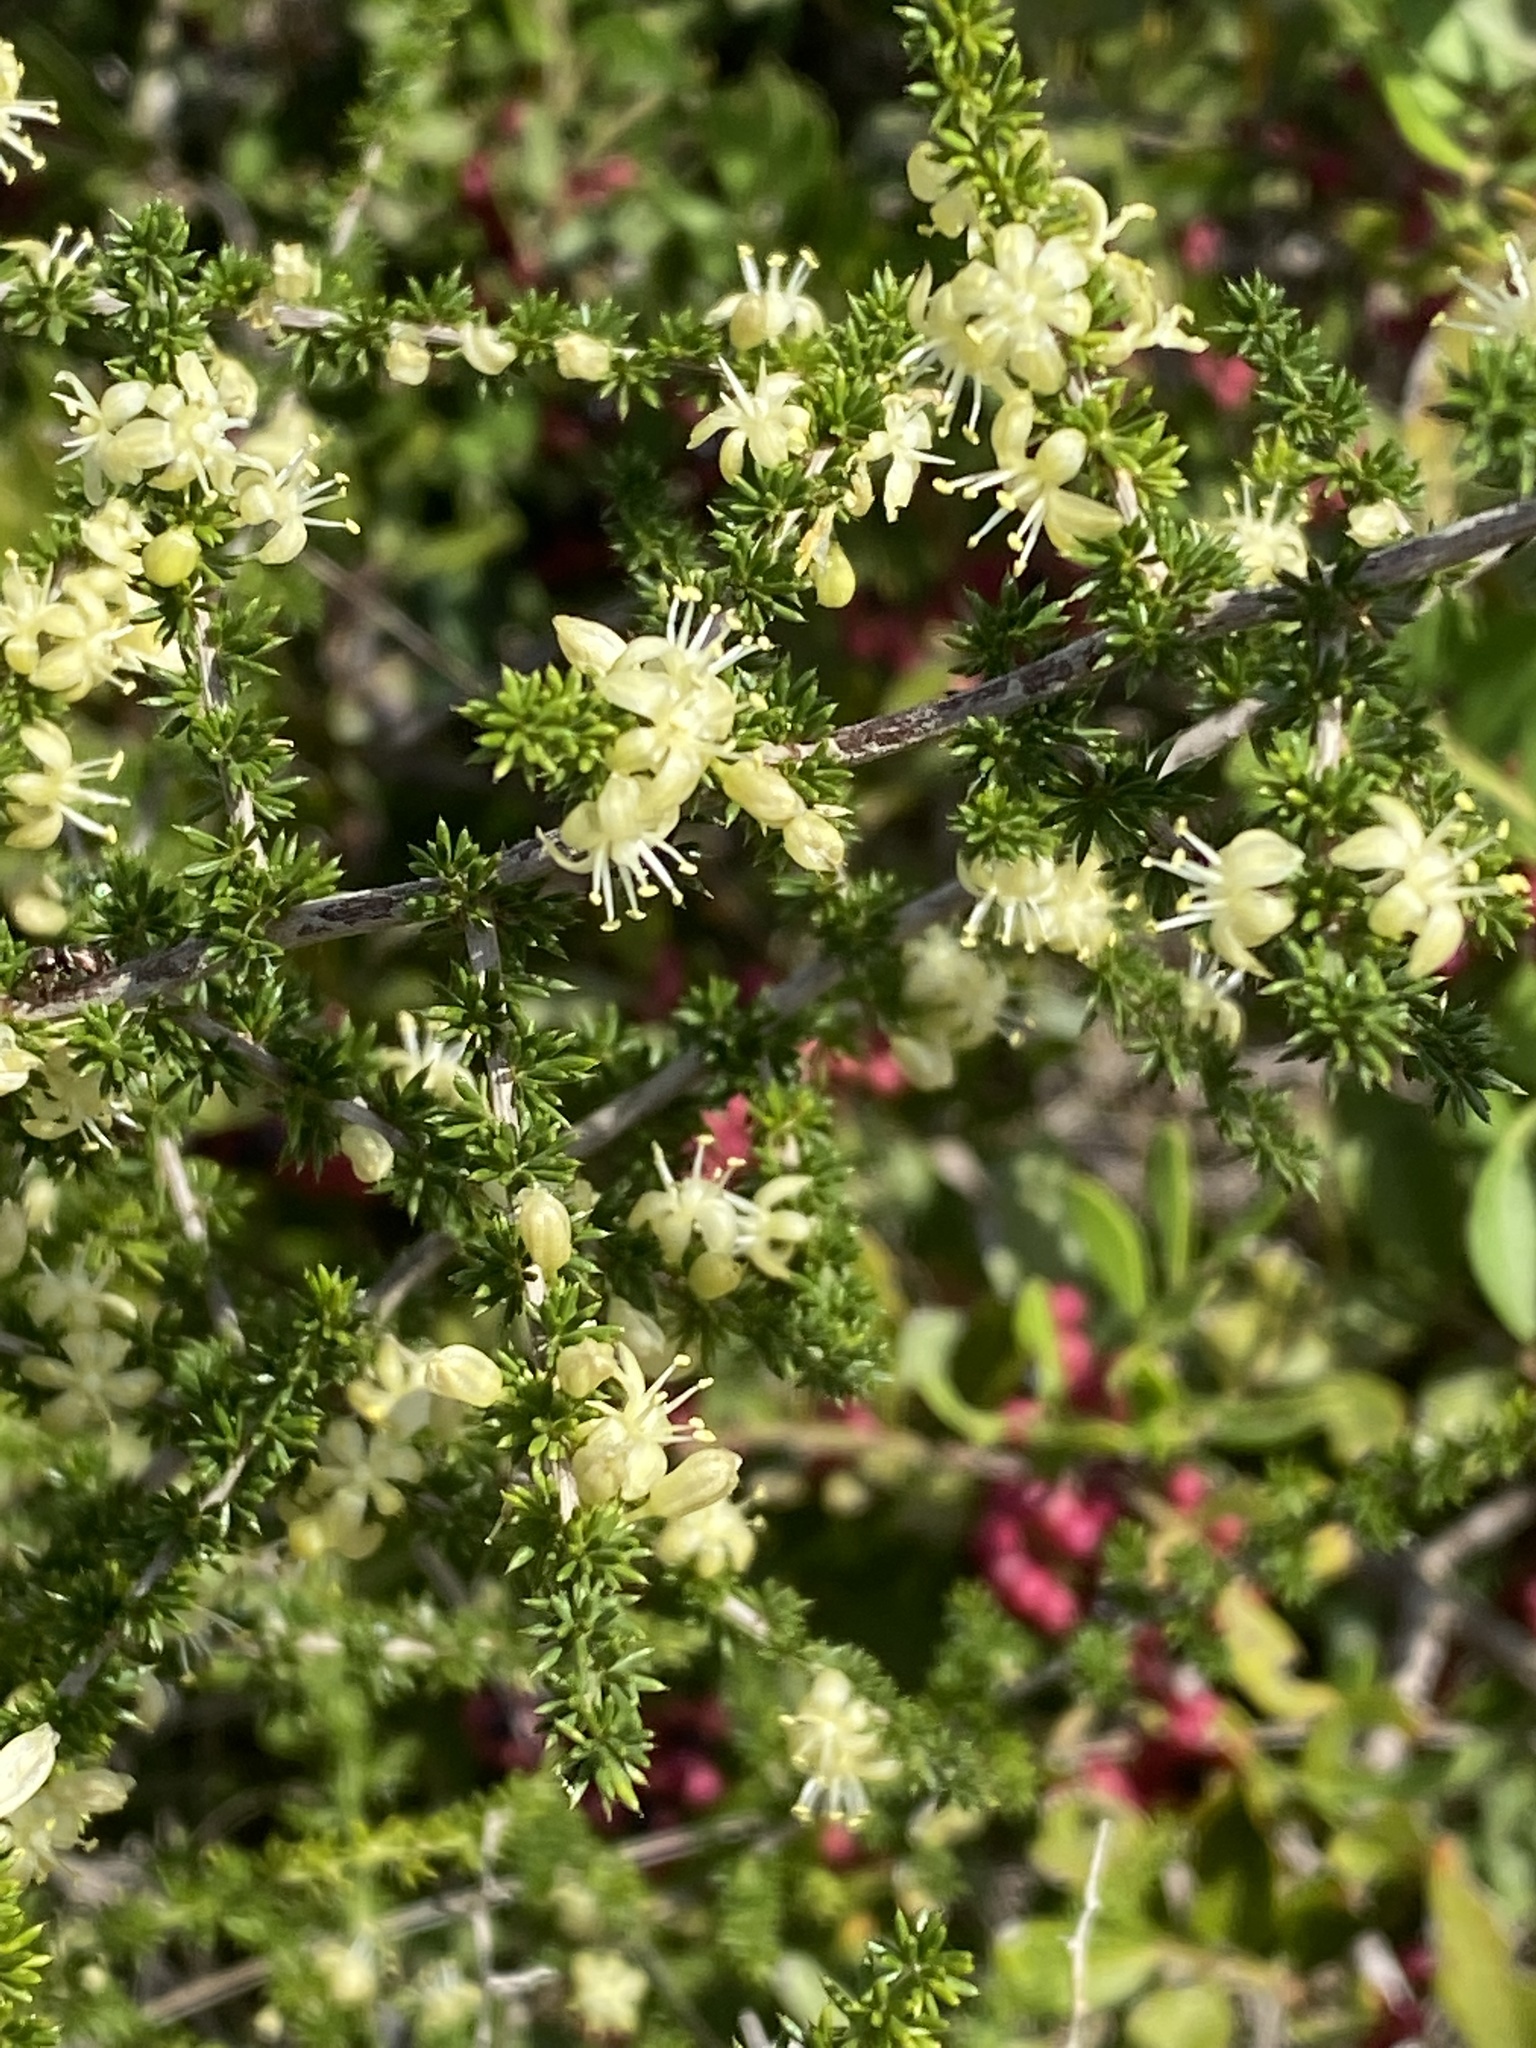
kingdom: Plantae
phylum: Tracheophyta
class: Liliopsida
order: Asparagales
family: Asparagaceae
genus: Asparagus
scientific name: Asparagus acutifolius
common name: Wild asparagus
